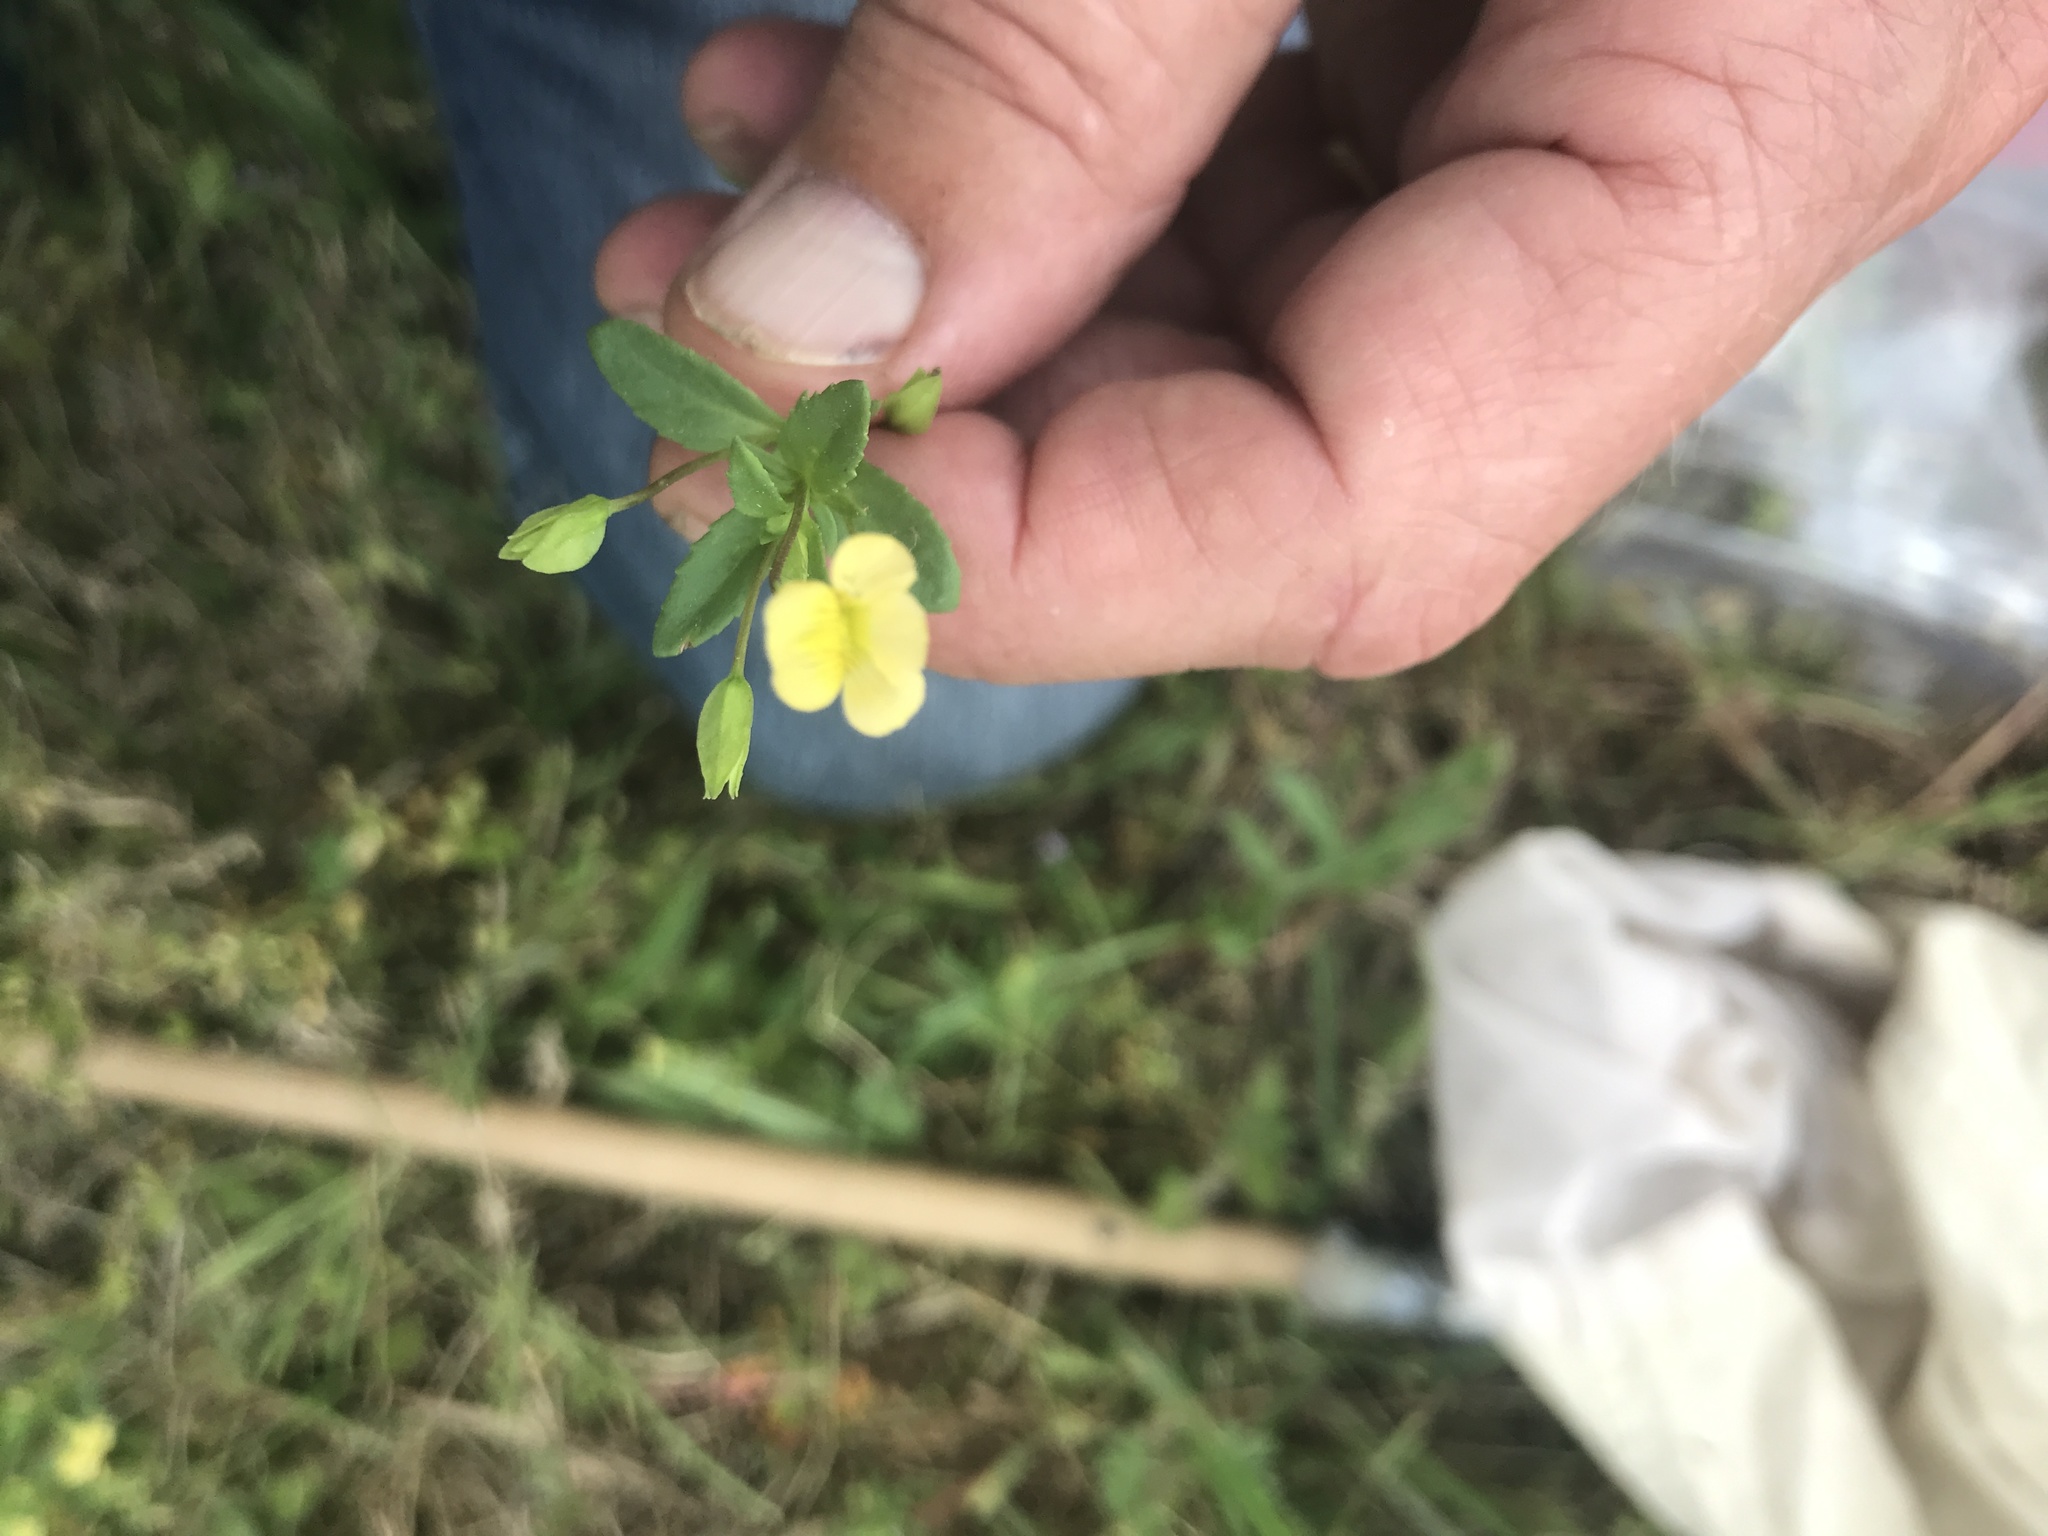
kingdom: Plantae
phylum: Tracheophyta
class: Magnoliopsida
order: Lamiales
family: Plantaginaceae
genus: Mecardonia
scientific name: Mecardonia procumbens
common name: Baby jump-up
